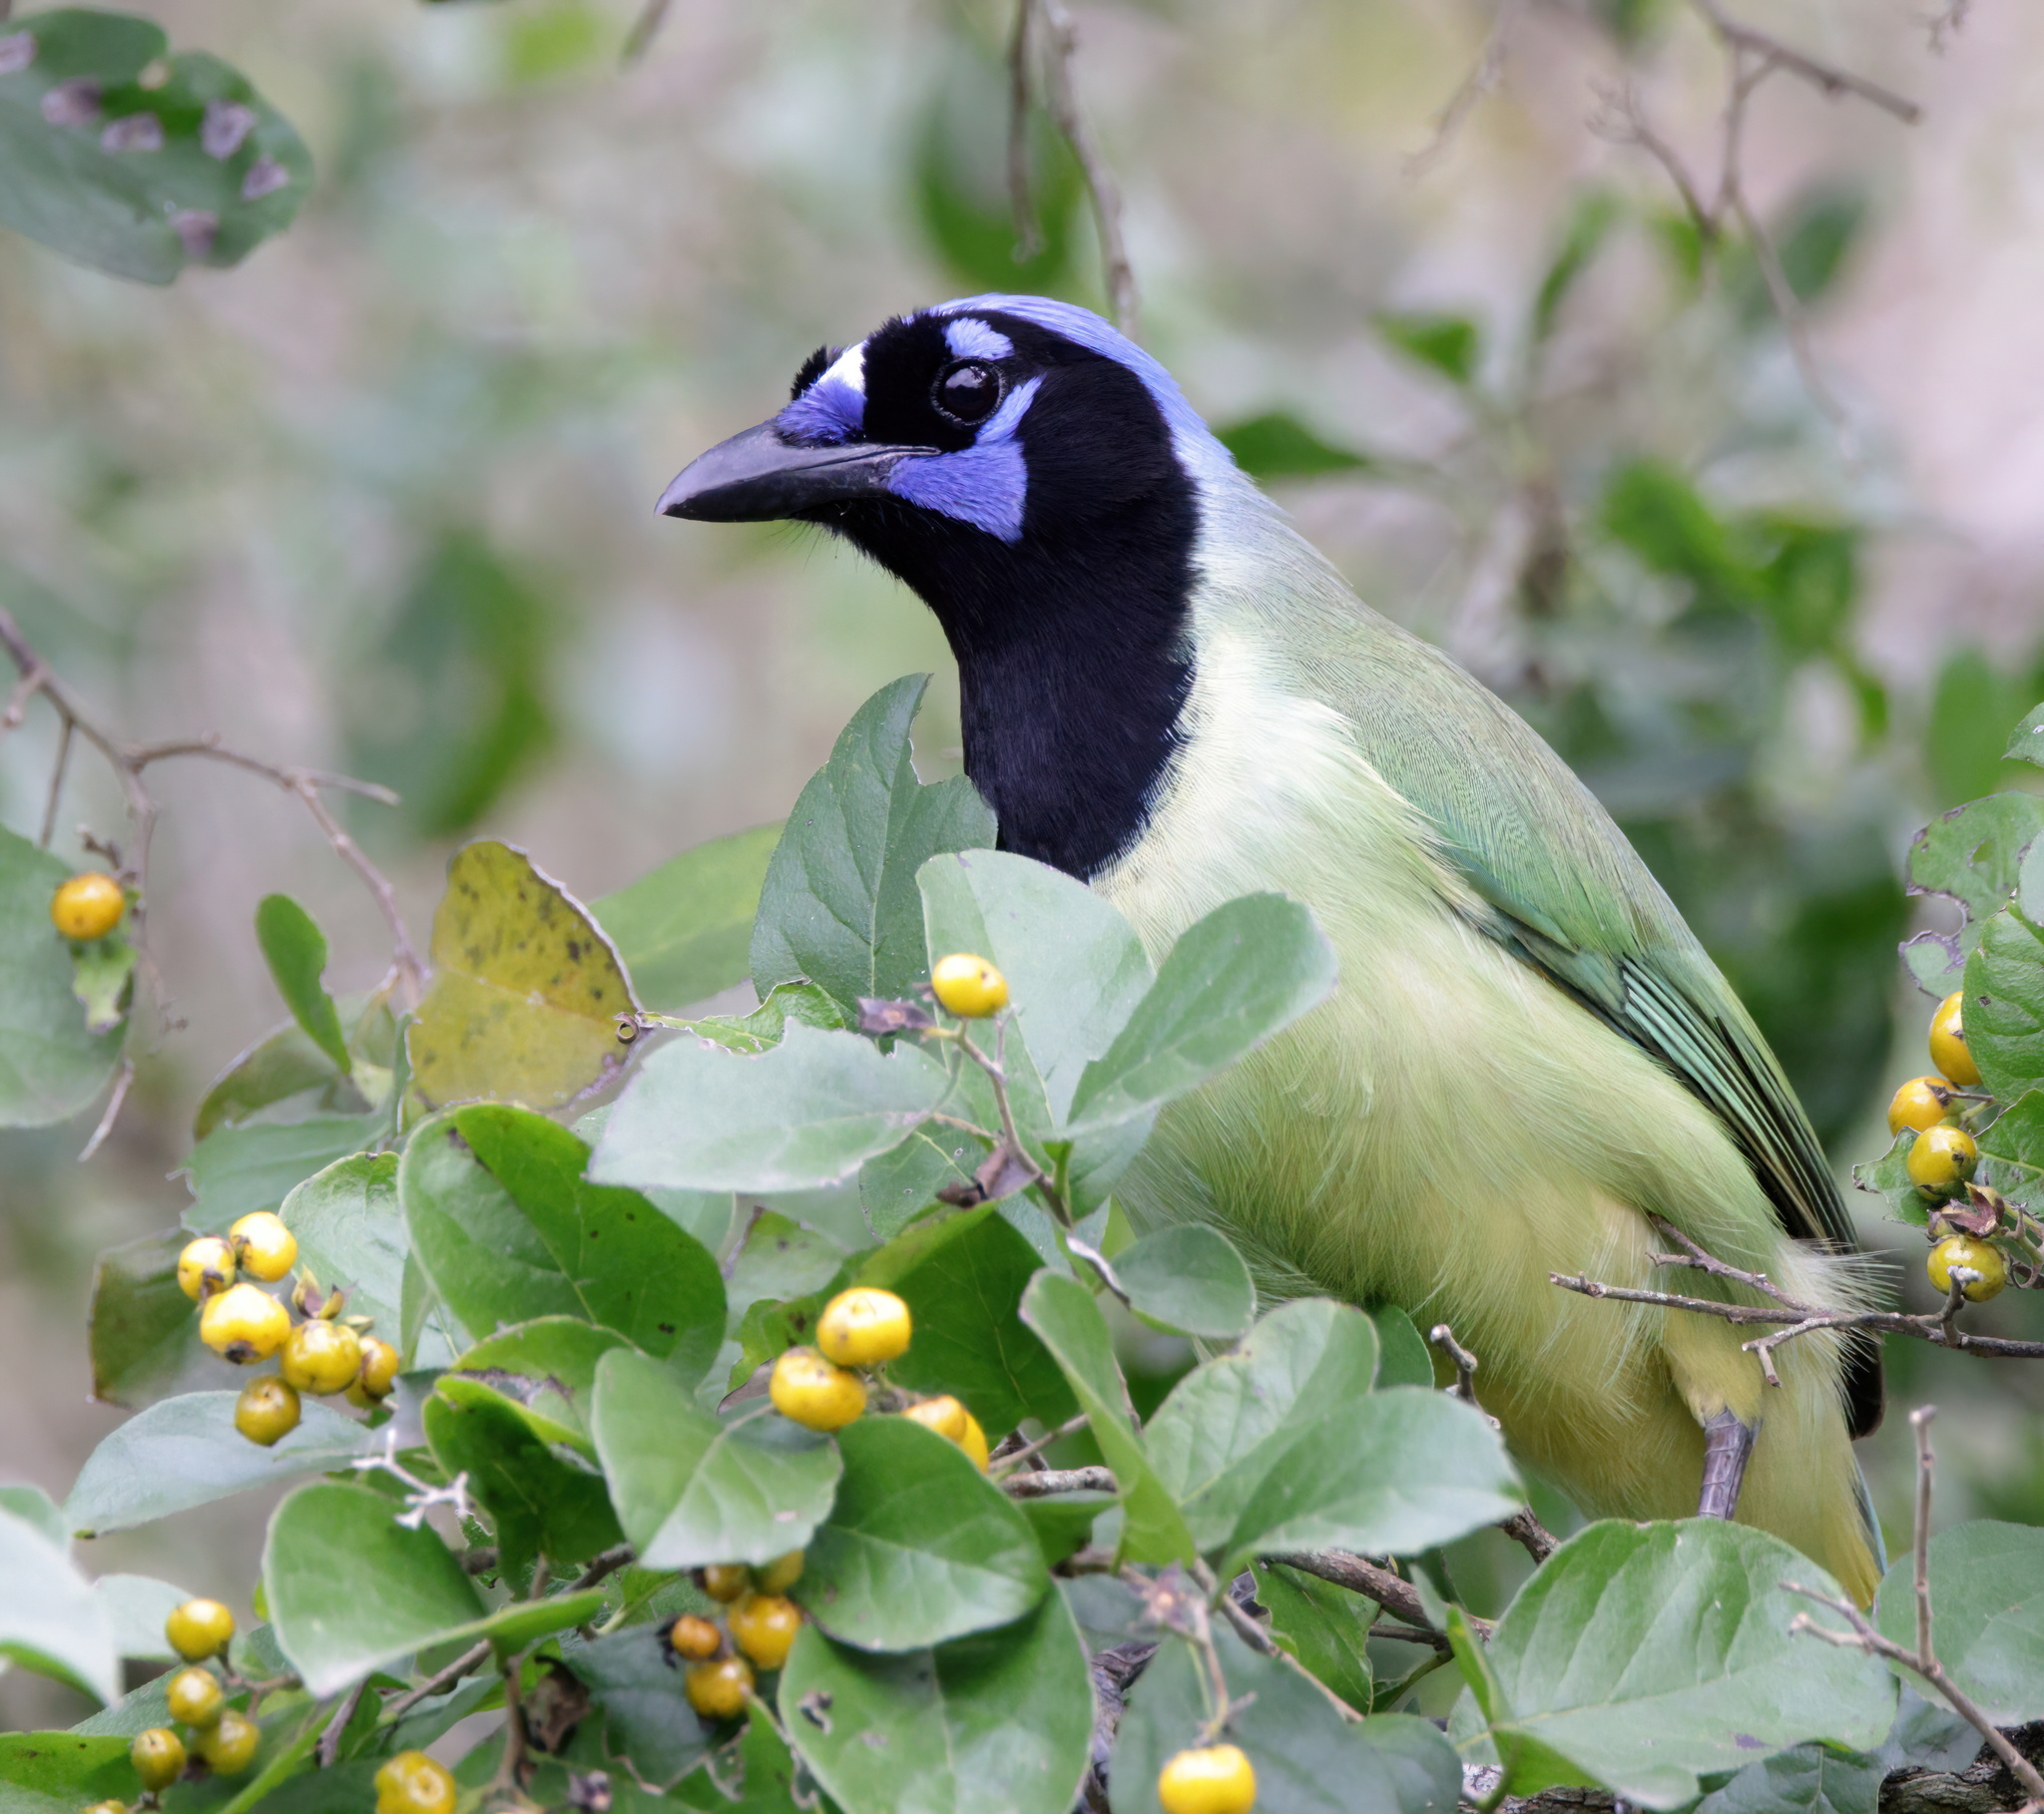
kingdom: Animalia
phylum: Chordata
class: Aves
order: Passeriformes
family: Corvidae
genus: Cyanocorax
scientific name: Cyanocorax yncas
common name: Green jay
